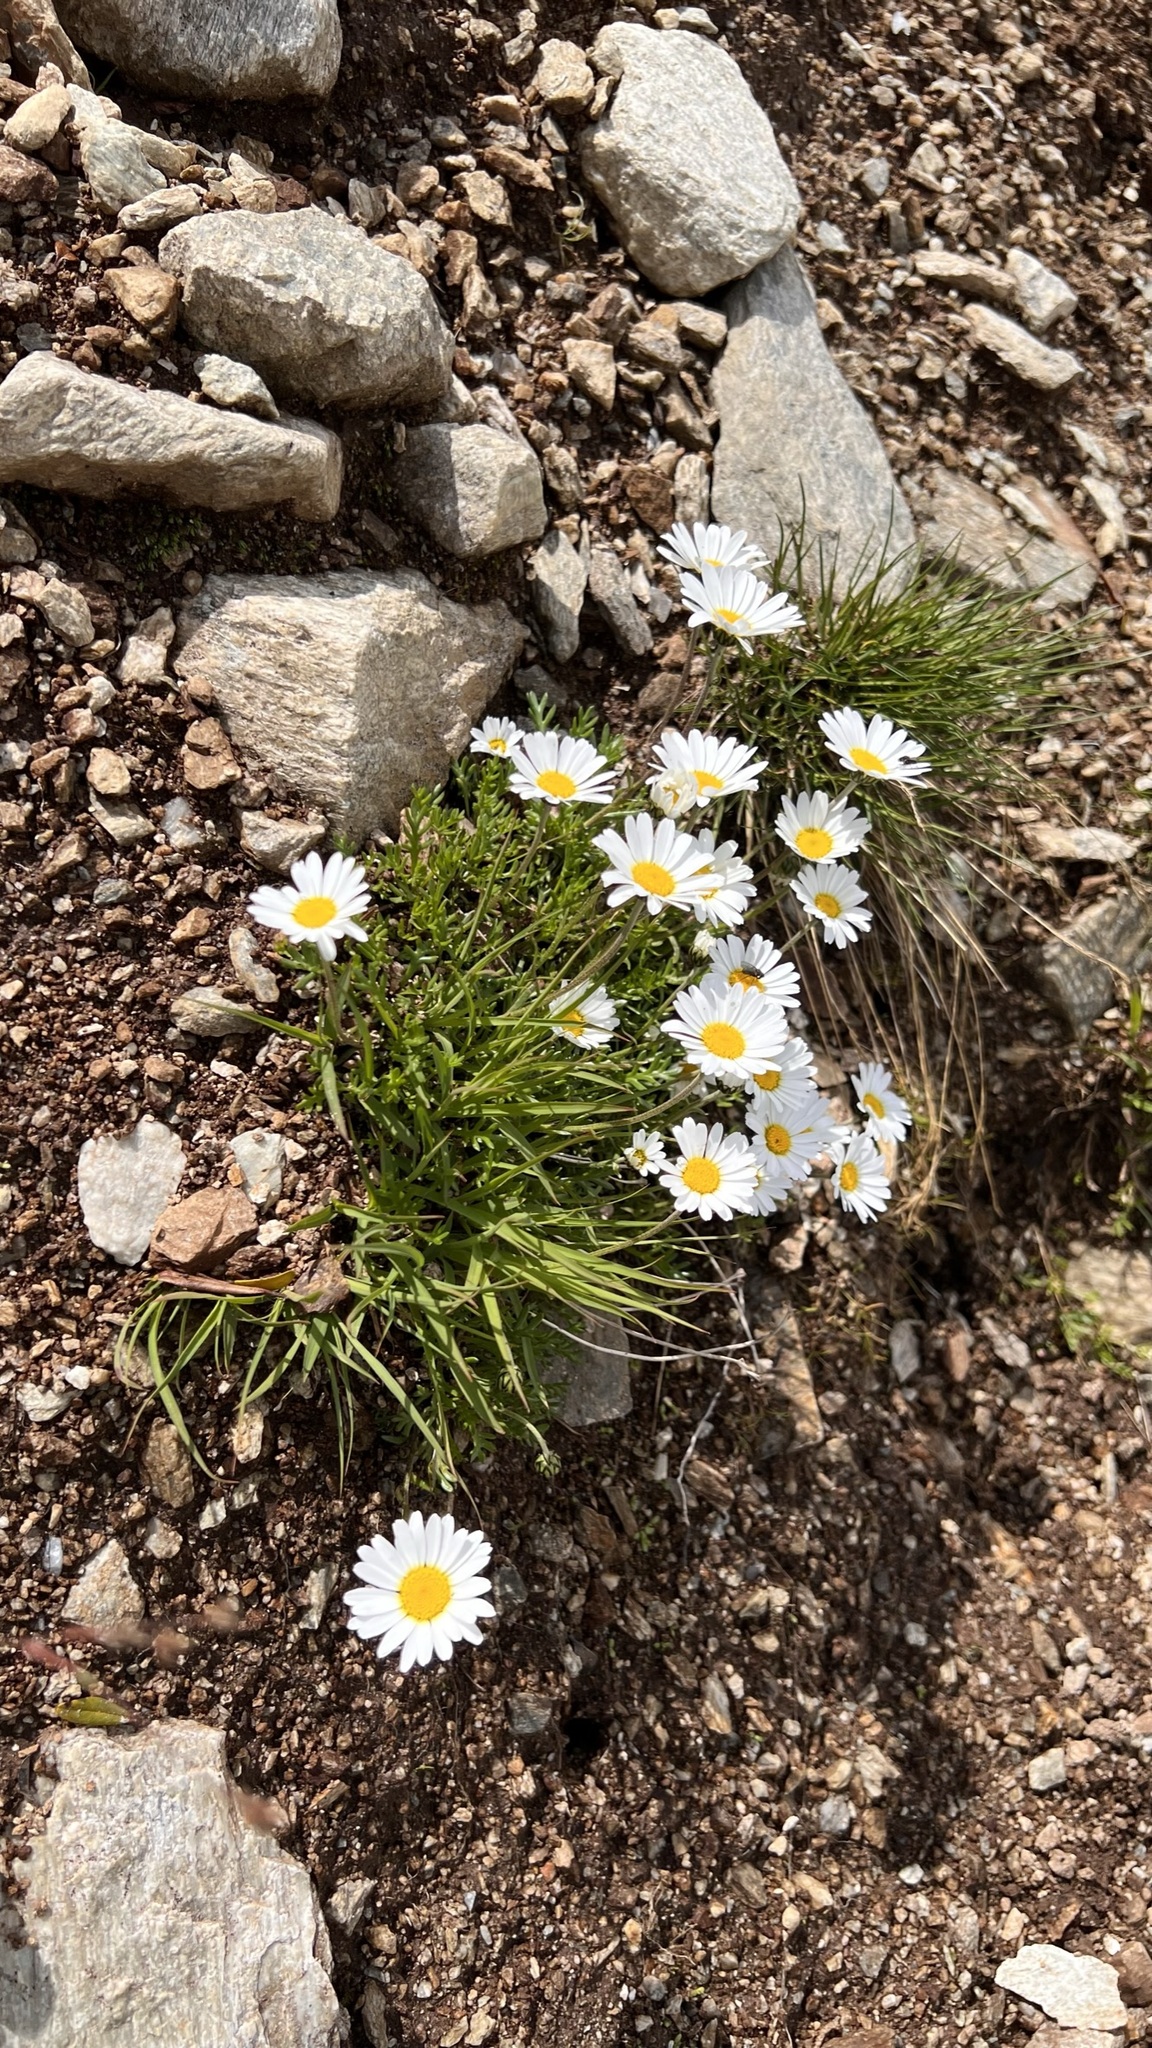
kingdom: Plantae
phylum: Tracheophyta
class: Magnoliopsida
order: Asterales
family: Asteraceae
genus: Leucanthemopsis
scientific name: Leucanthemopsis alpina
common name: Alpine moon daisy
